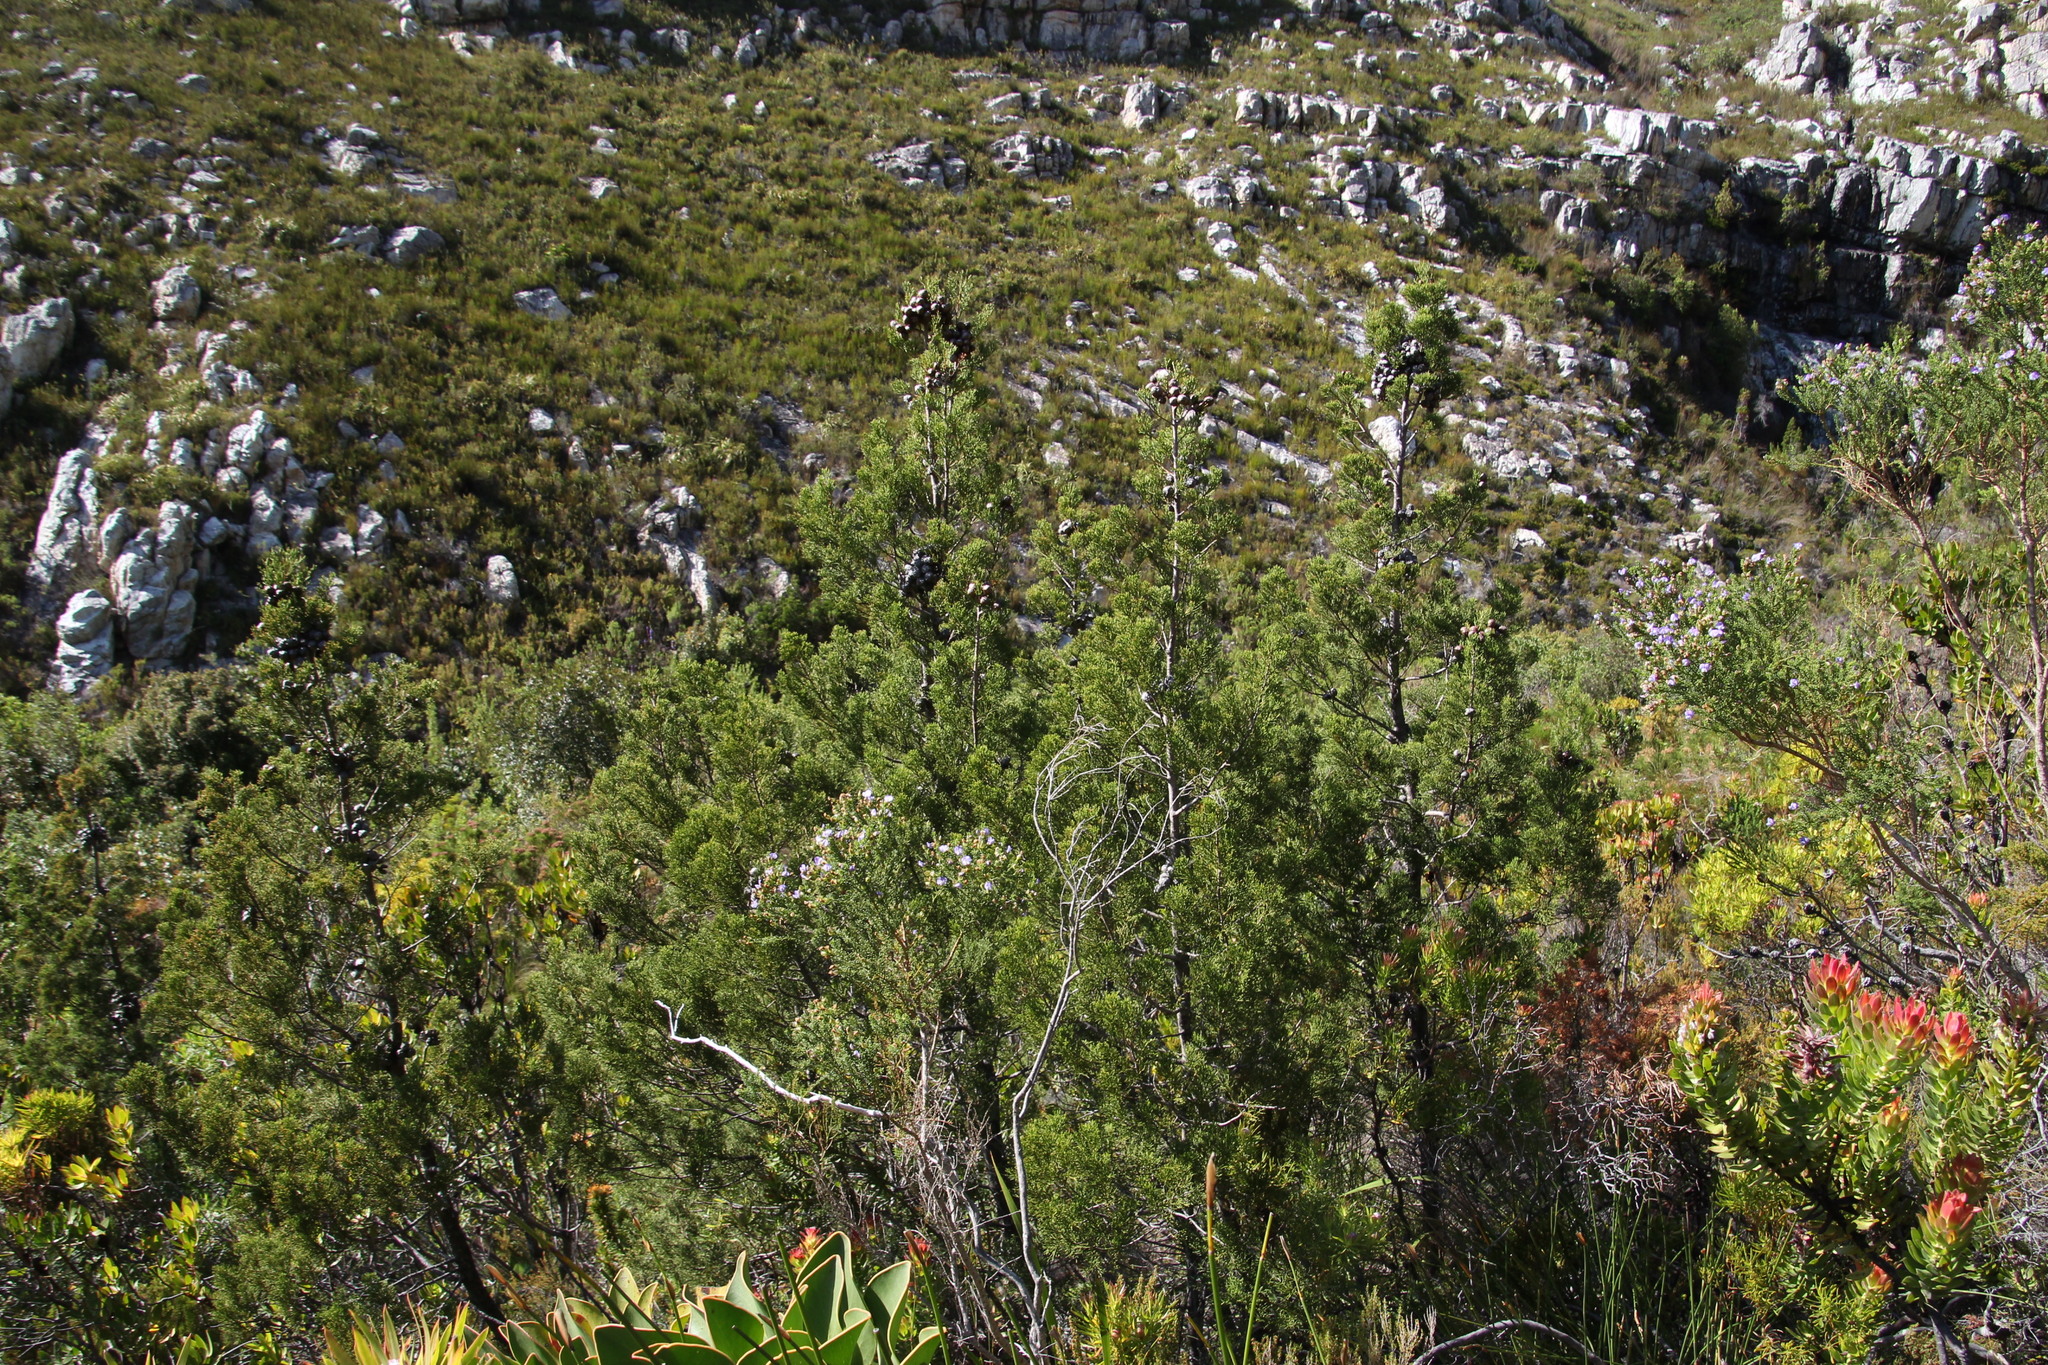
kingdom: Plantae
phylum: Tracheophyta
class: Pinopsida
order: Pinales
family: Cupressaceae
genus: Widdringtonia
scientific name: Widdringtonia nodiflora
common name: Cape cypress
